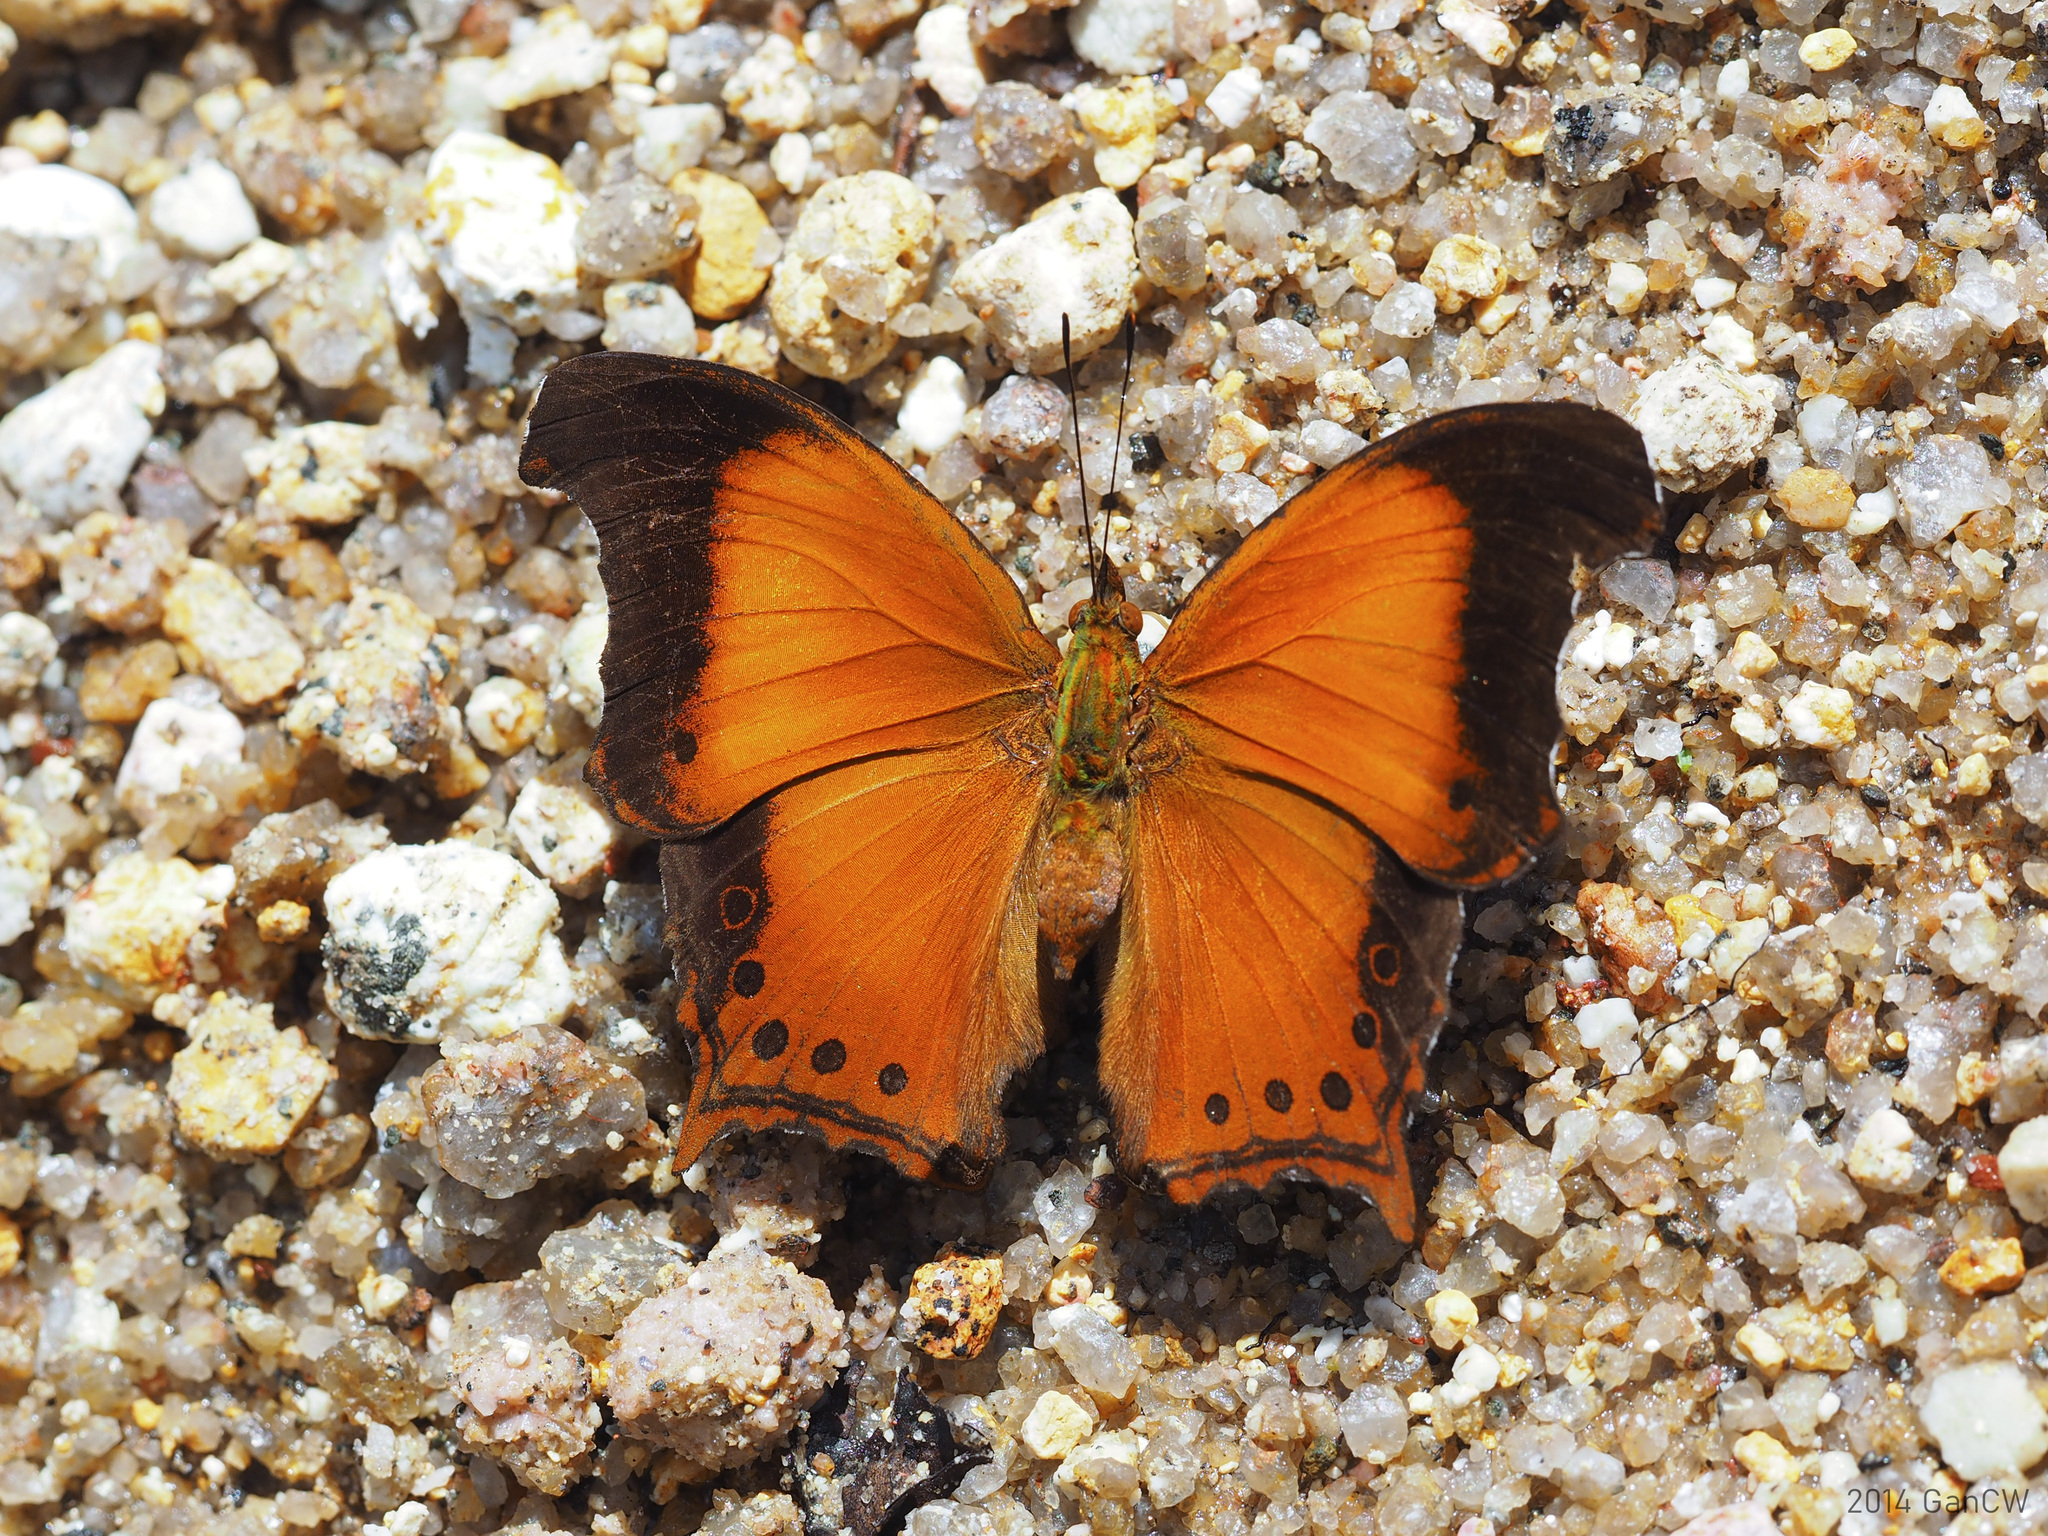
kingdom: Animalia
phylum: Arthropoda
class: Insecta
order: Lepidoptera
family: Nymphalidae
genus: Rhinopalpa
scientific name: Rhinopalpa polynice
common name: Wizard
